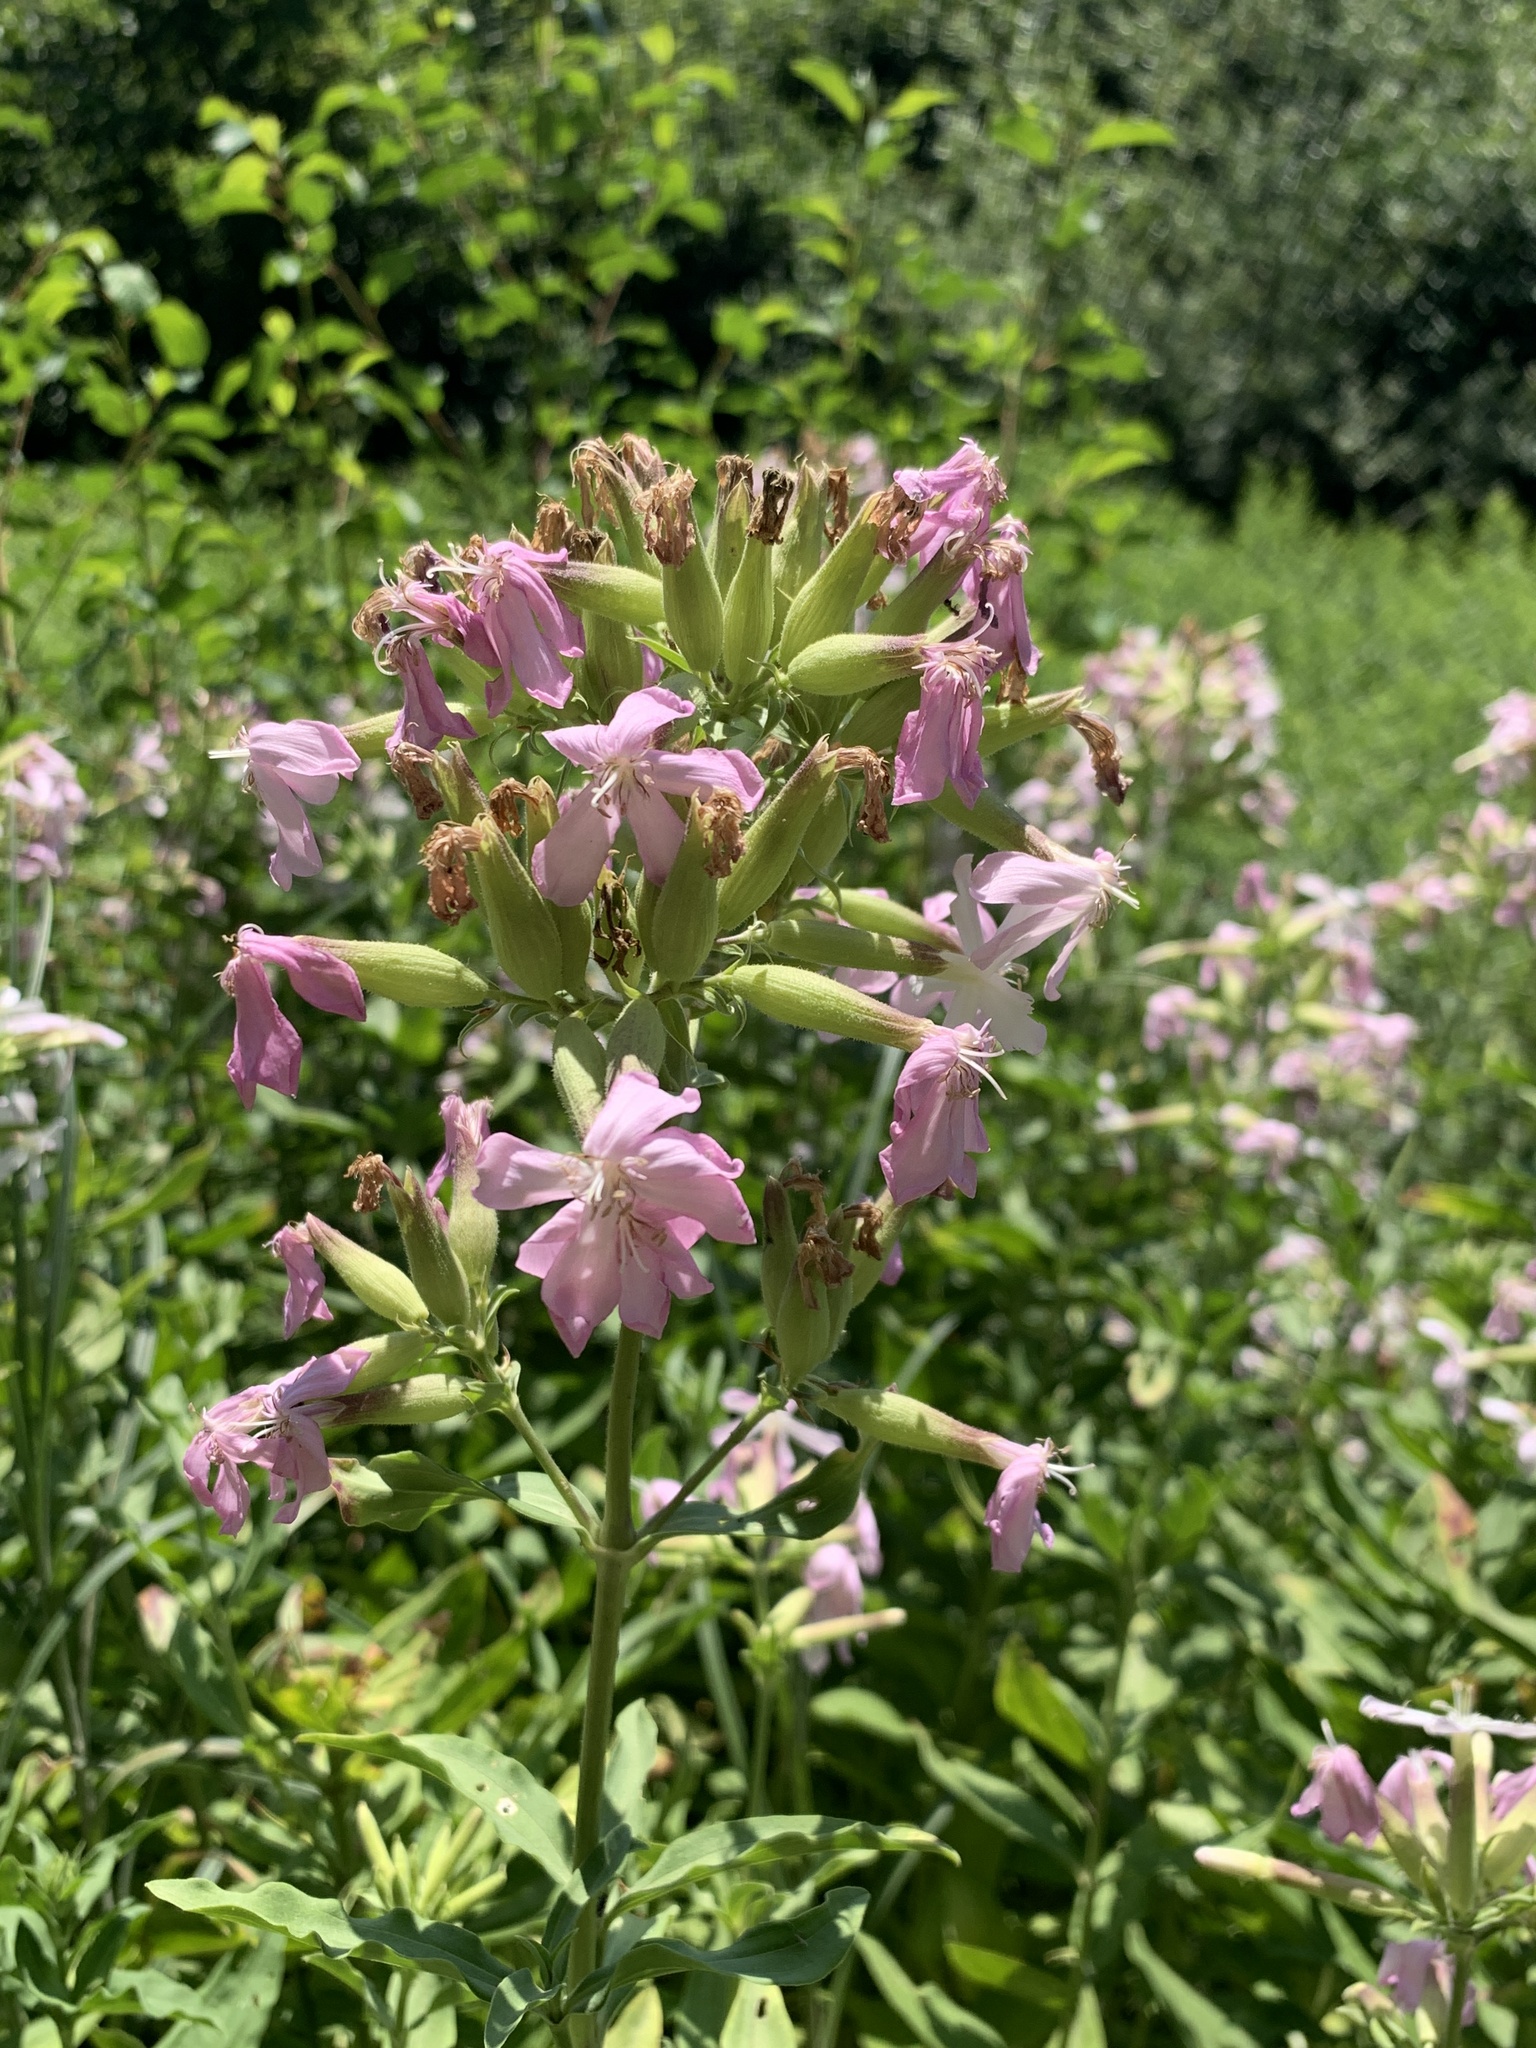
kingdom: Plantae
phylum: Tracheophyta
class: Magnoliopsida
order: Caryophyllales
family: Caryophyllaceae
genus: Saponaria
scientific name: Saponaria officinalis
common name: Soapwort
